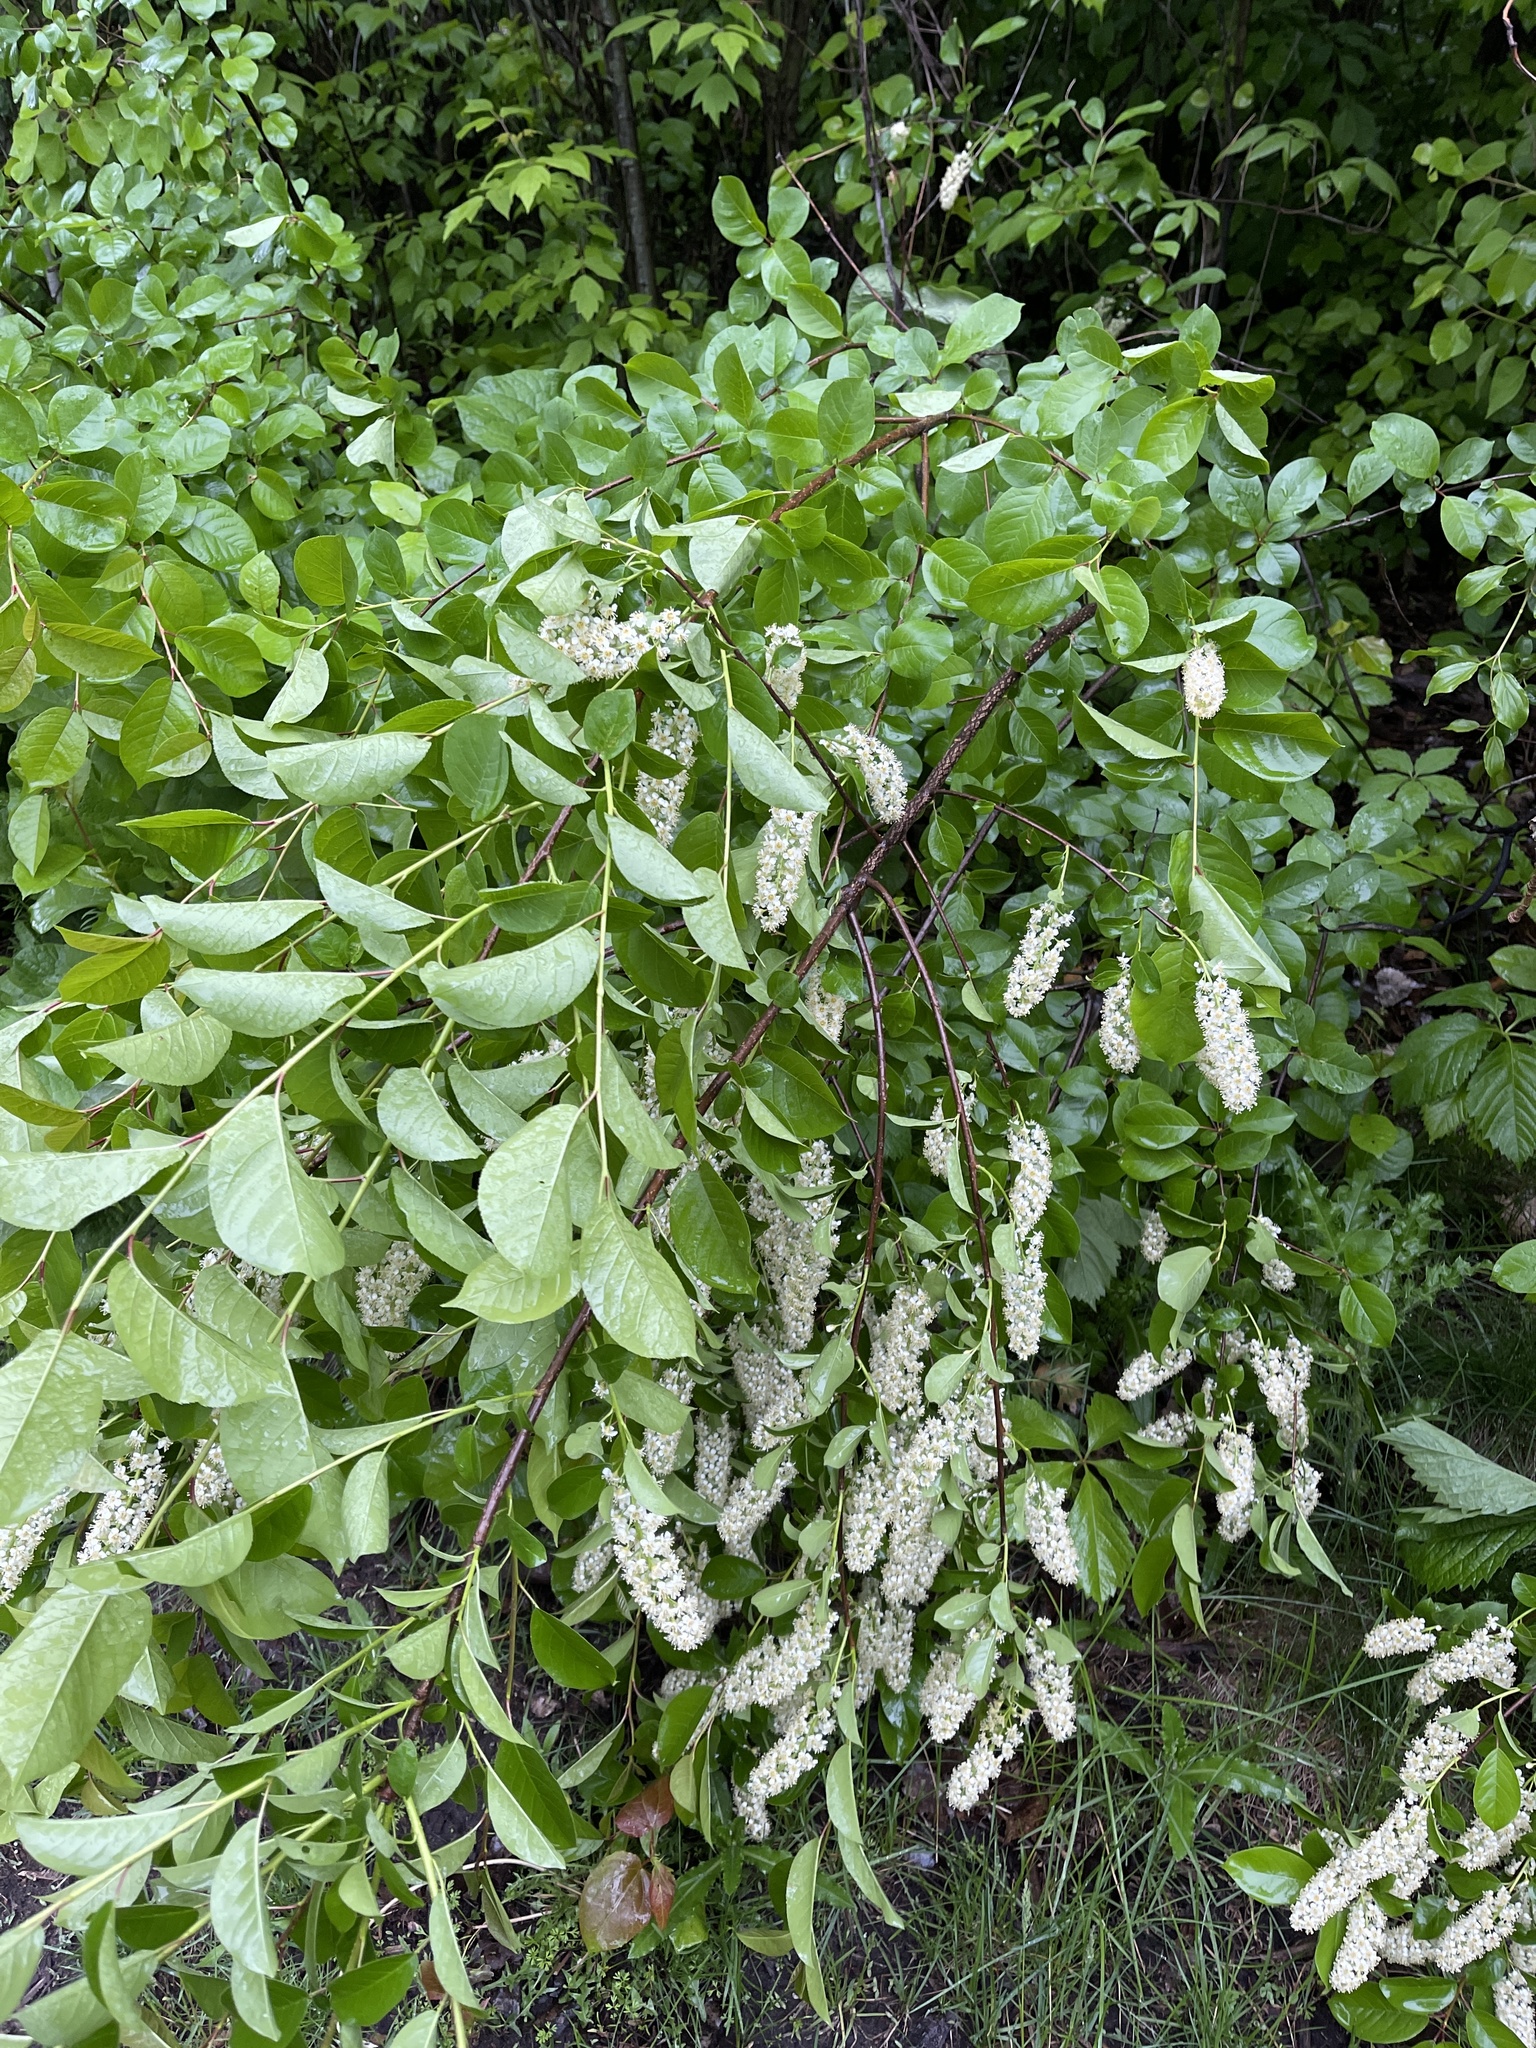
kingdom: Plantae
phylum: Tracheophyta
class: Magnoliopsida
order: Rosales
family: Rosaceae
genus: Prunus
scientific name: Prunus virginiana
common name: Chokecherry
